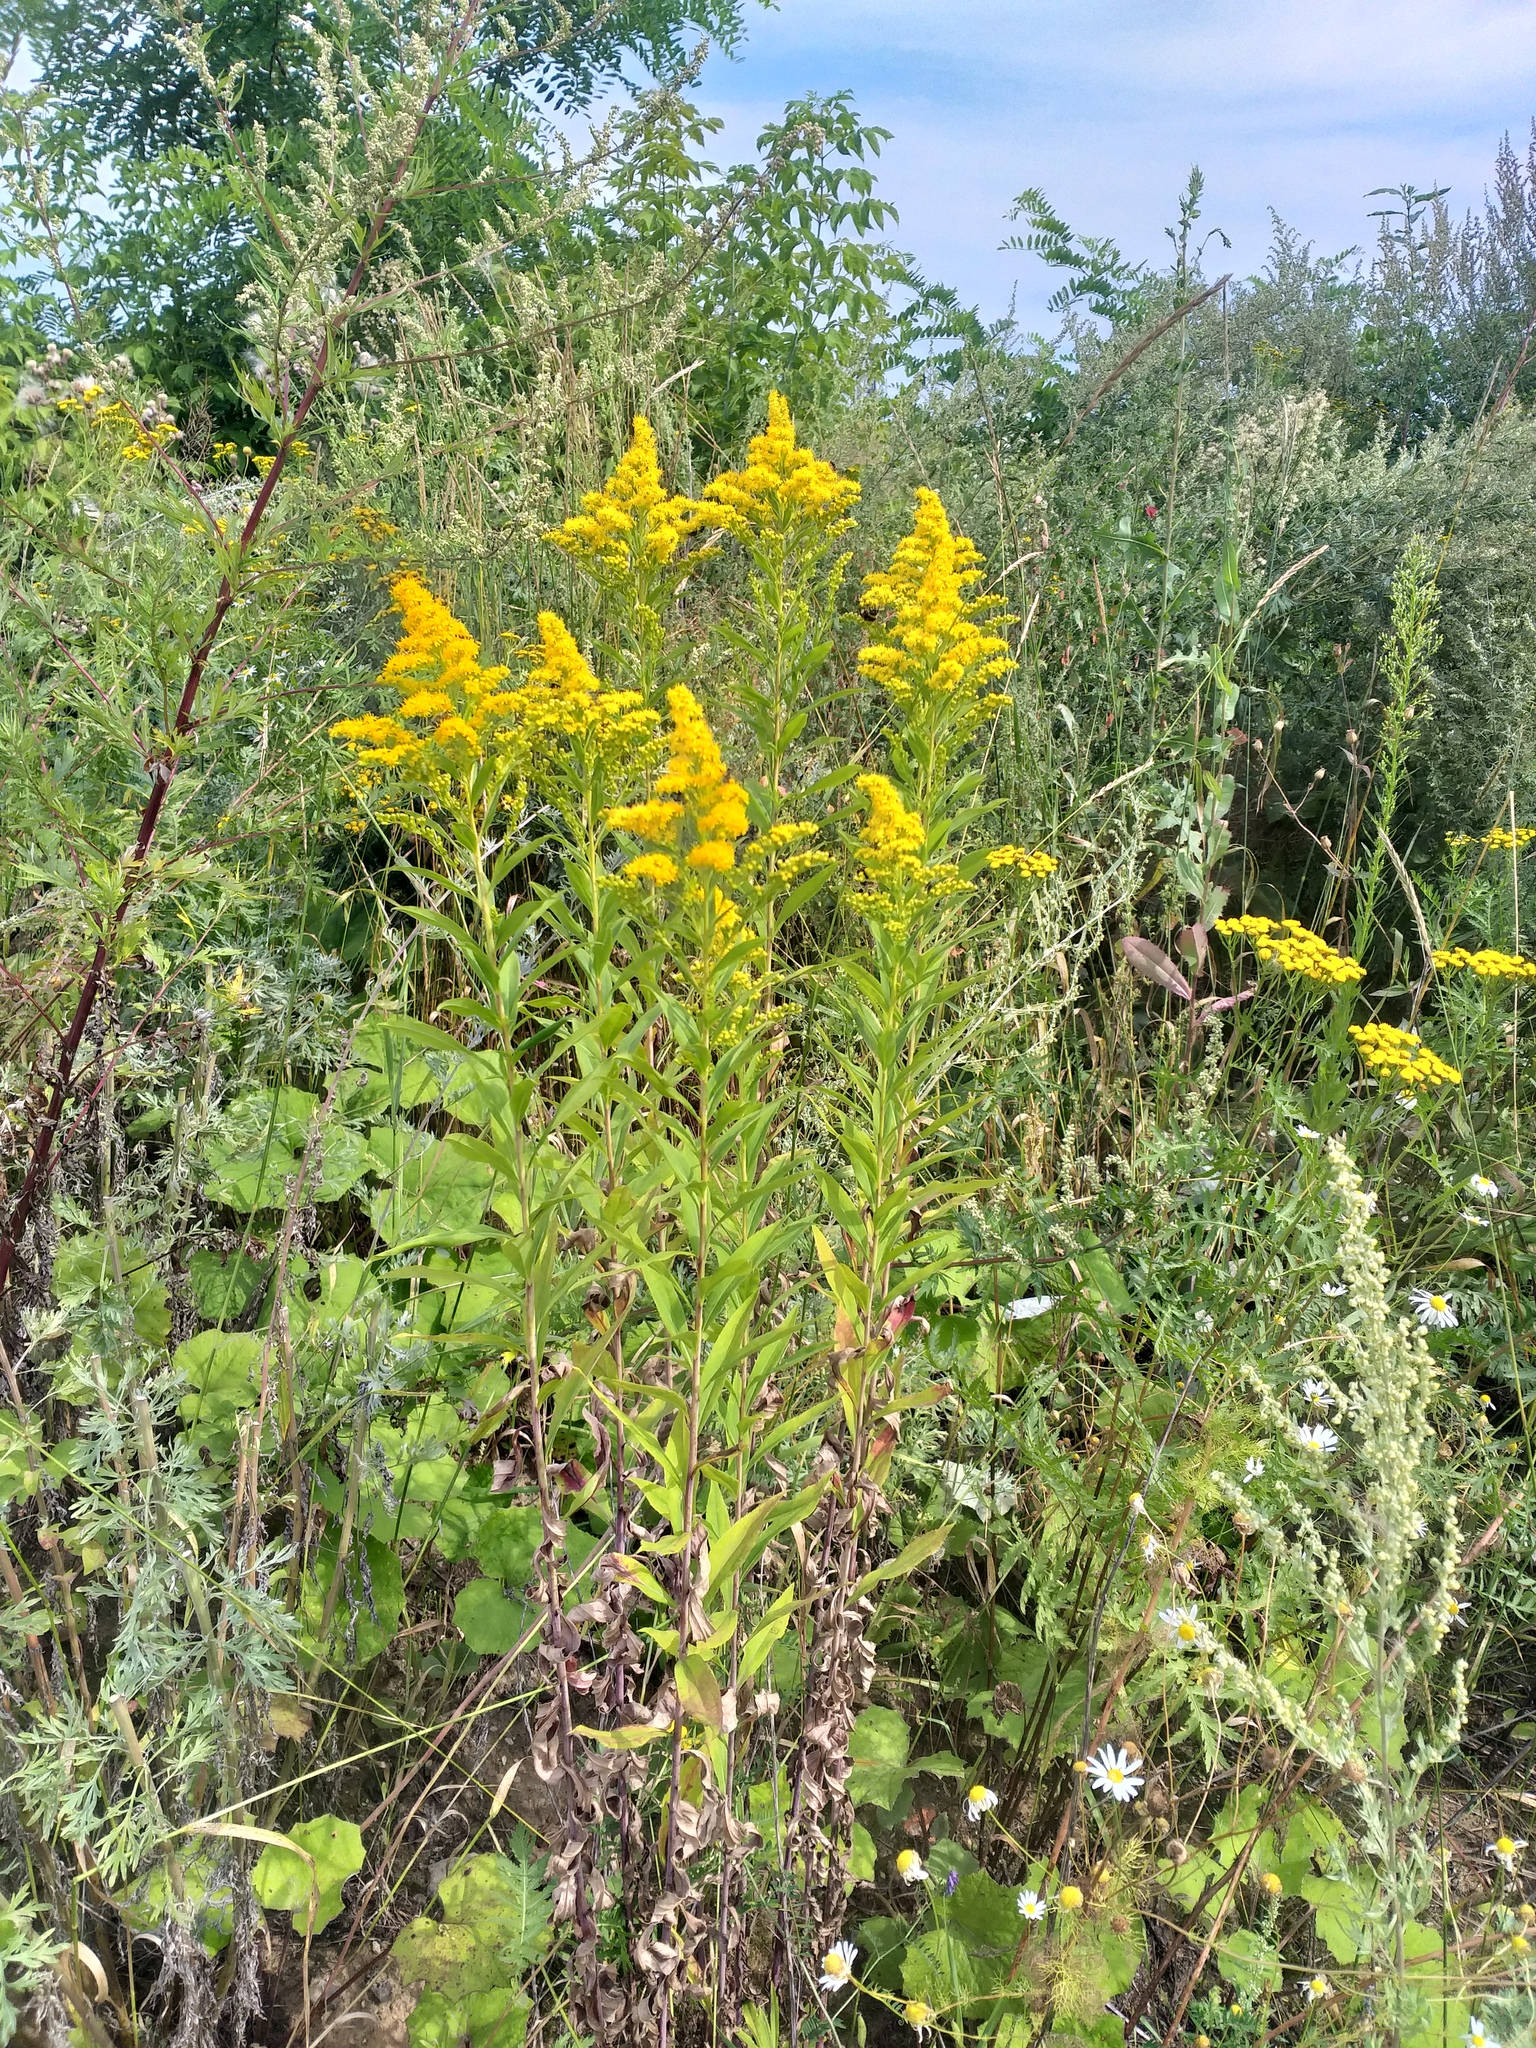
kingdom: Plantae
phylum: Tracheophyta
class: Magnoliopsida
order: Asterales
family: Asteraceae
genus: Solidago
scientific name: Solidago gigantea
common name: Giant goldenrod
